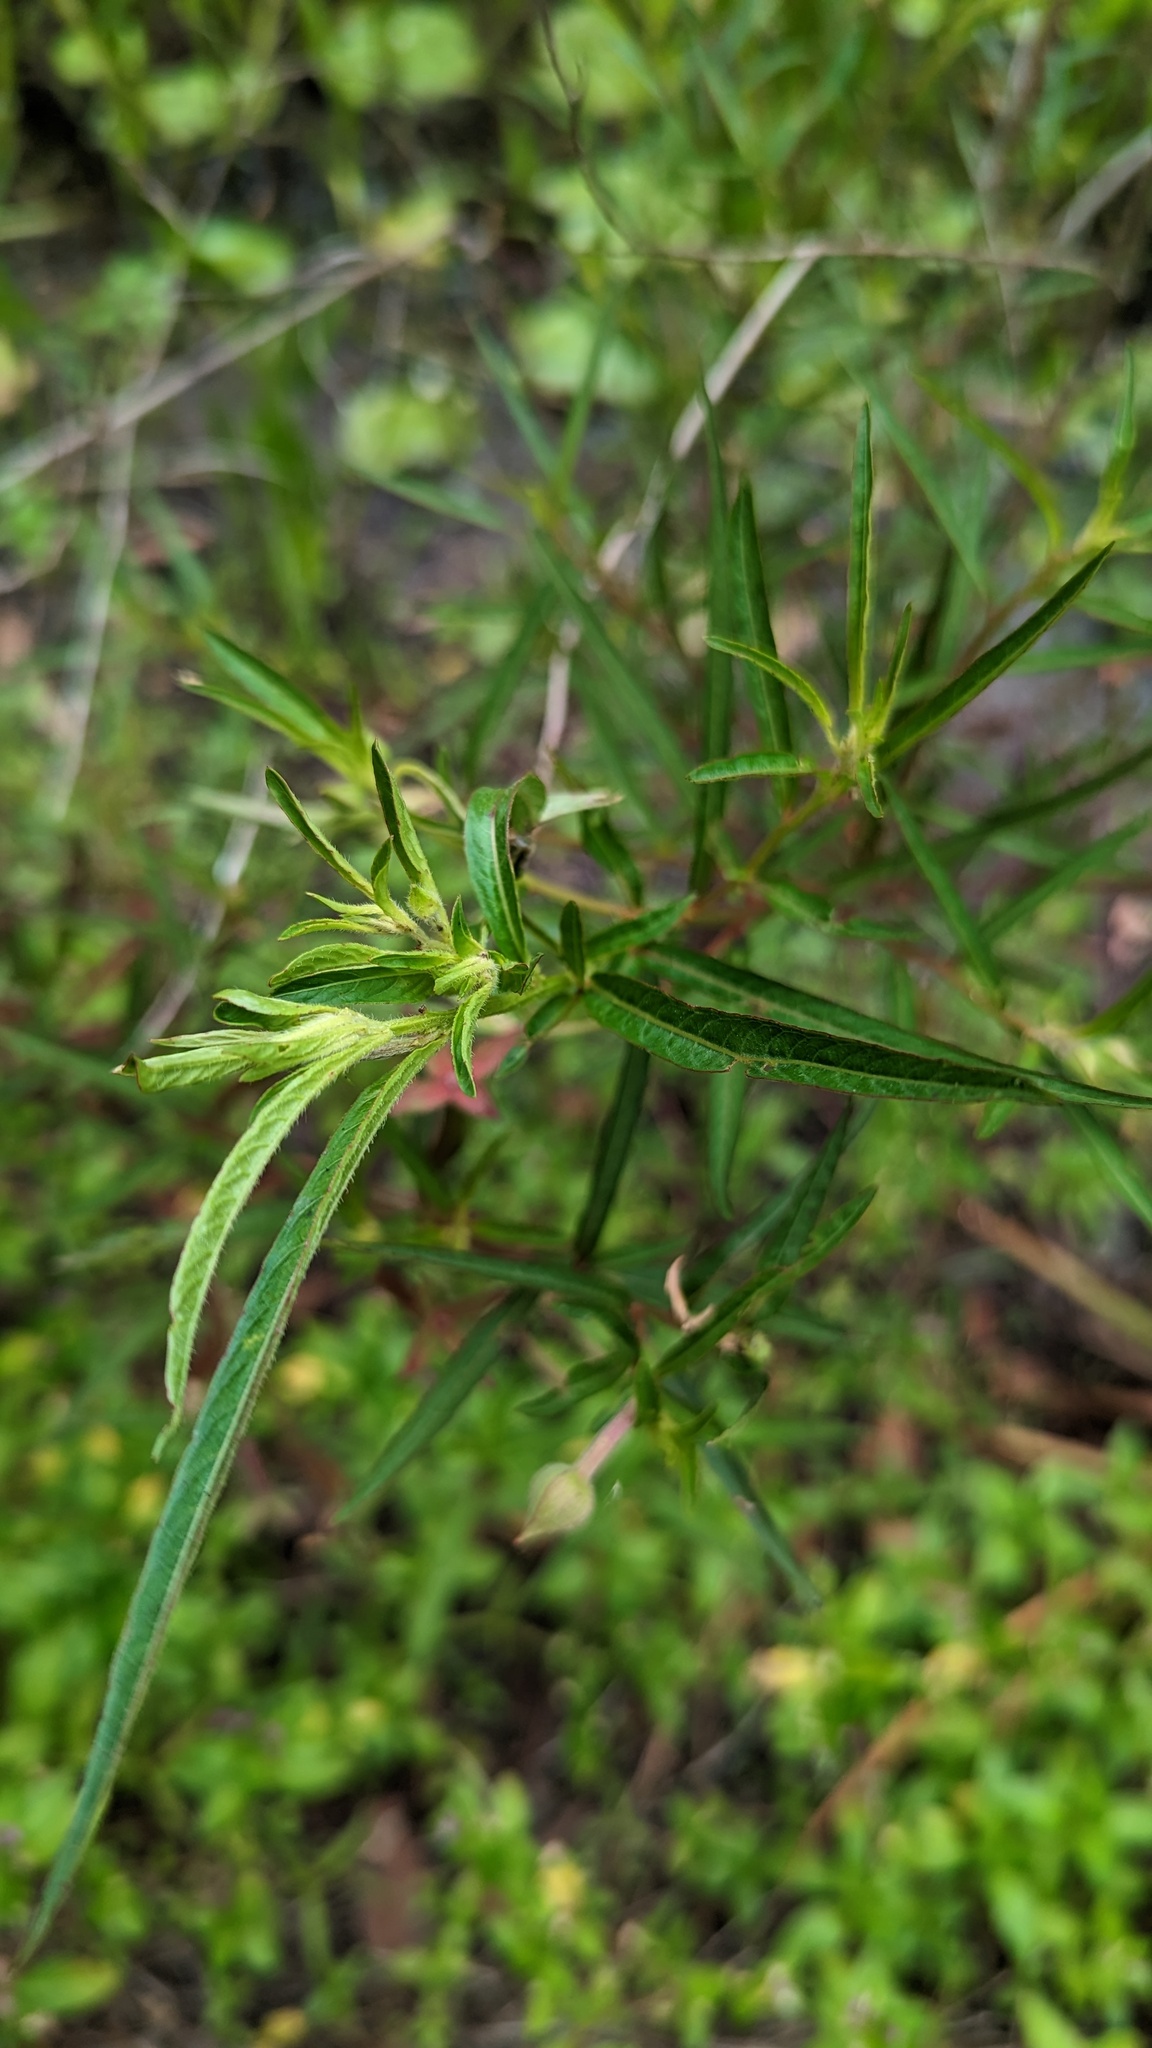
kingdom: Plantae
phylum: Tracheophyta
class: Magnoliopsida
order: Myrtales
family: Onagraceae
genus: Ludwigia
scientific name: Ludwigia octovalvis
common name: Water-primrose
